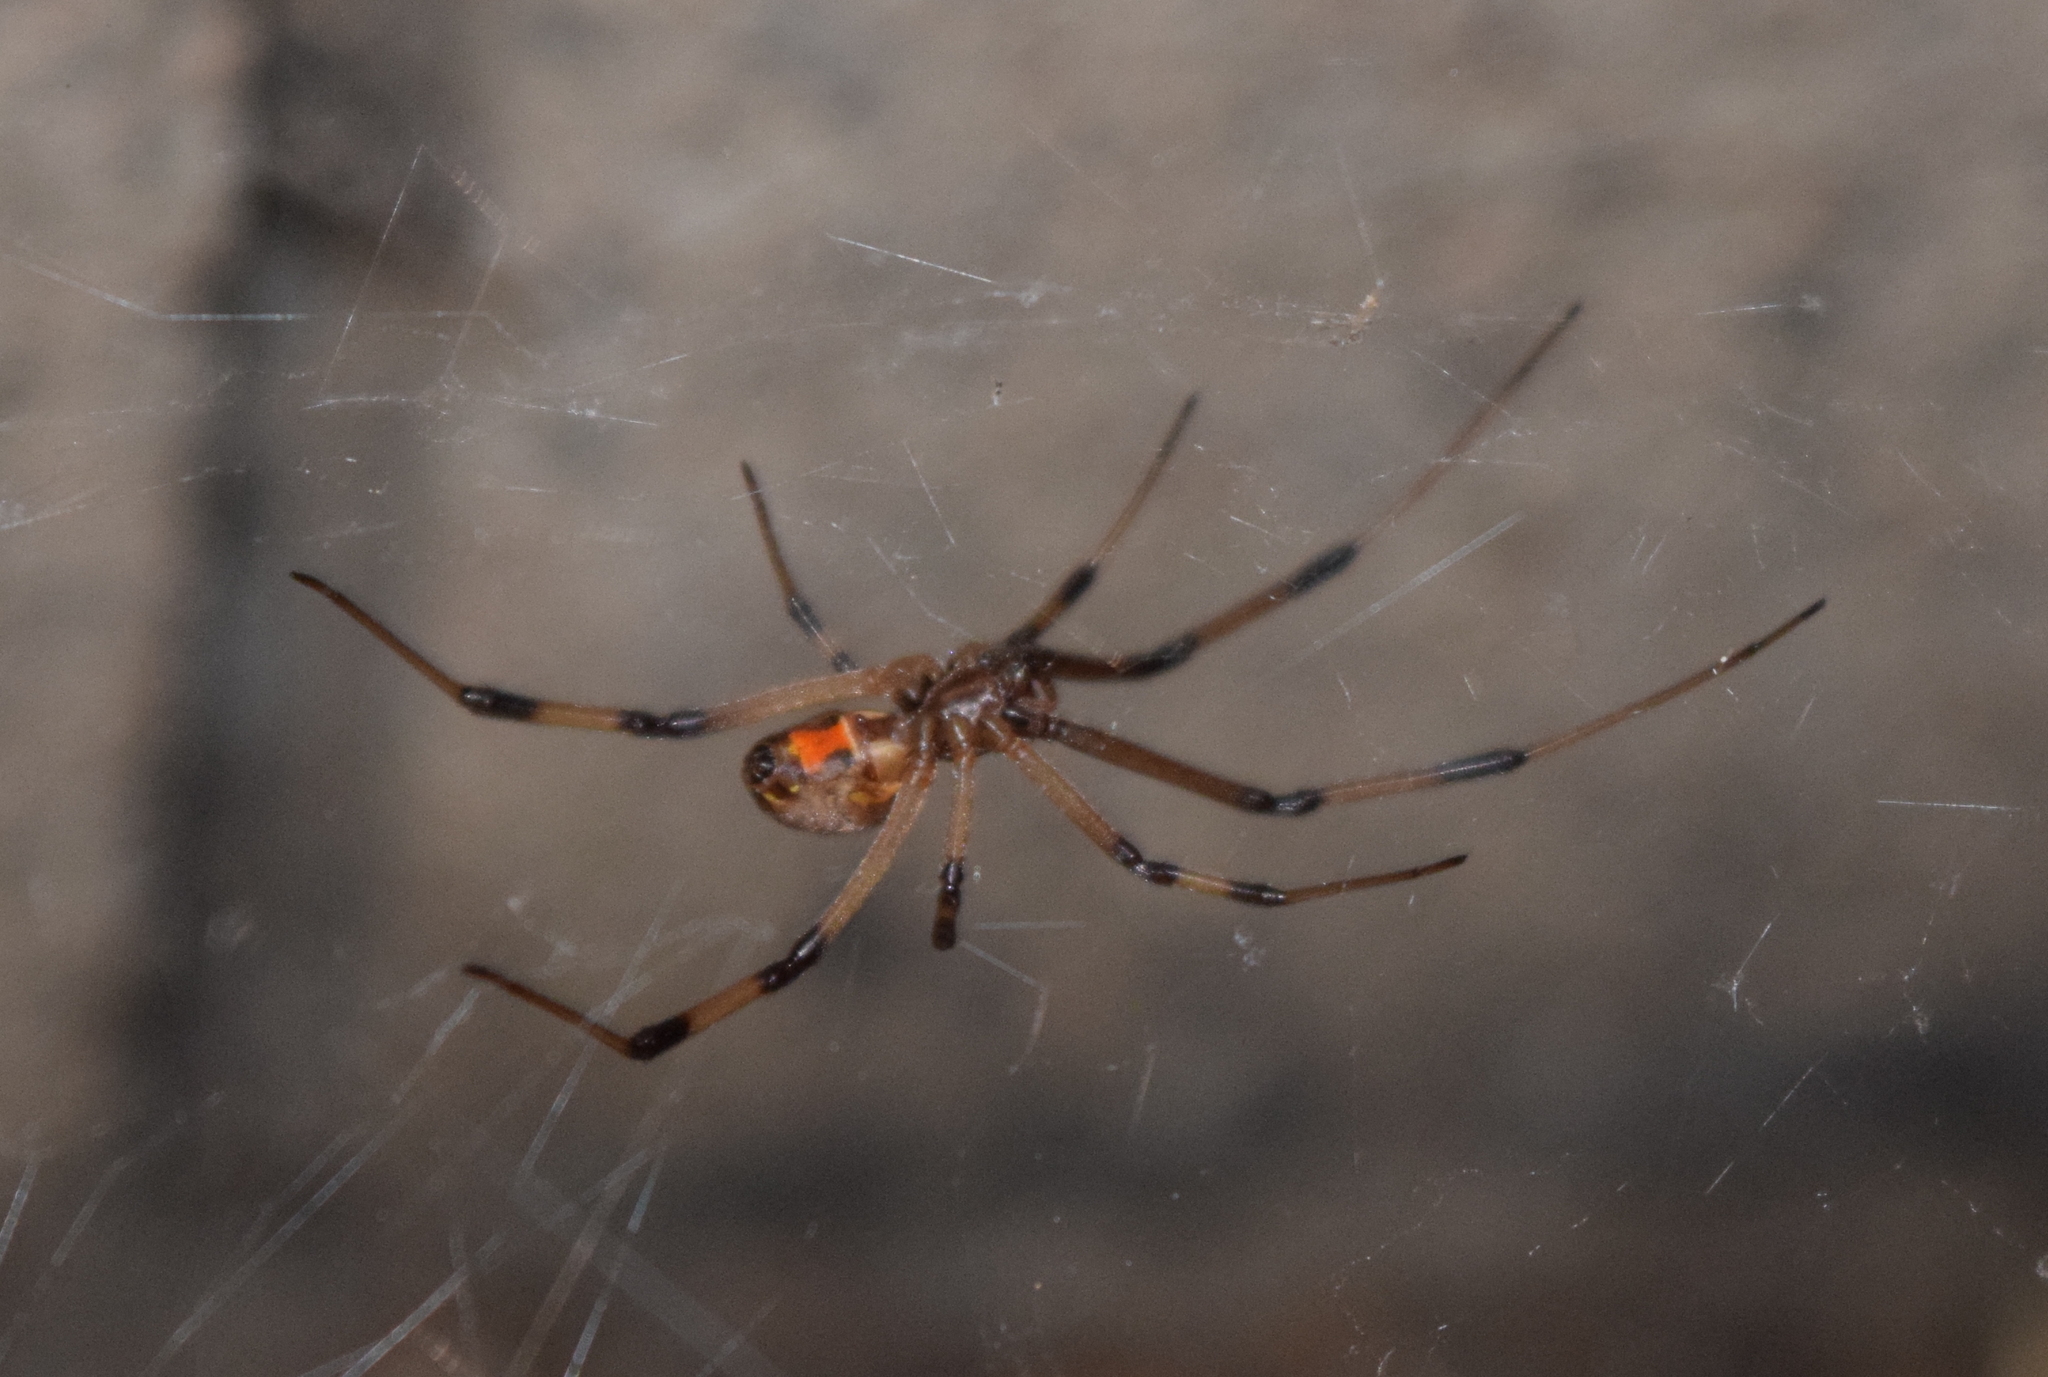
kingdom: Animalia
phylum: Arthropoda
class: Arachnida
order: Araneae
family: Theridiidae
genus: Latrodectus
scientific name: Latrodectus geometricus
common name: Brown widow spider
